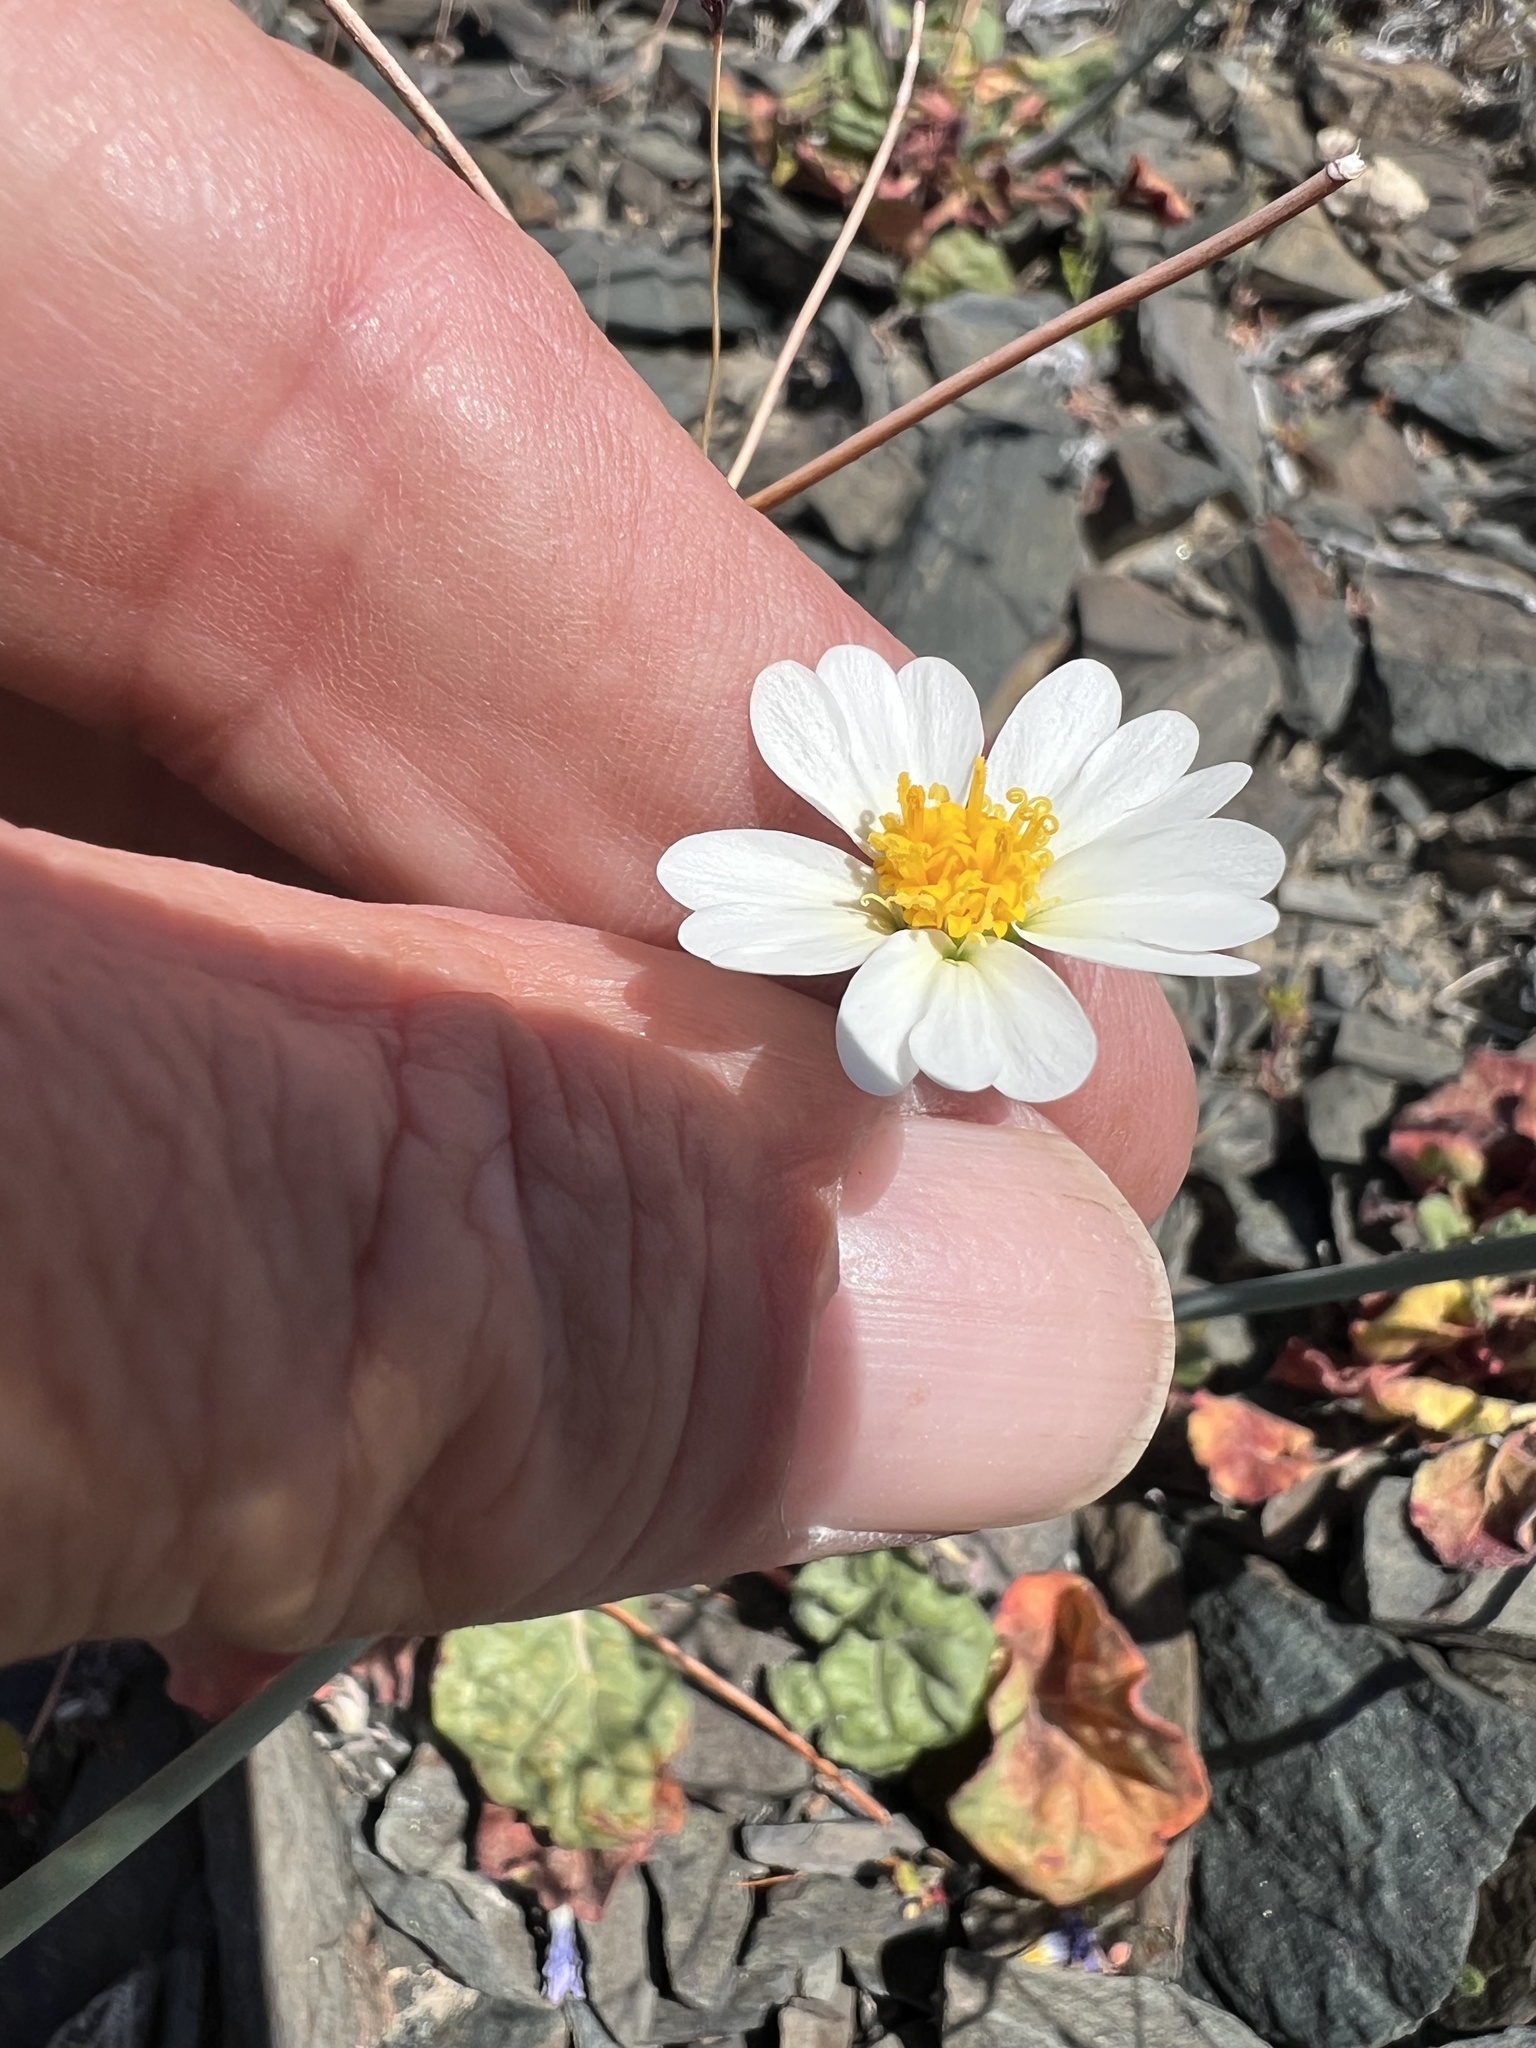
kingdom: Plantae
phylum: Tracheophyta
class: Magnoliopsida
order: Asterales
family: Asteraceae
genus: Layia
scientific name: Layia glandulosa
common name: White layia
